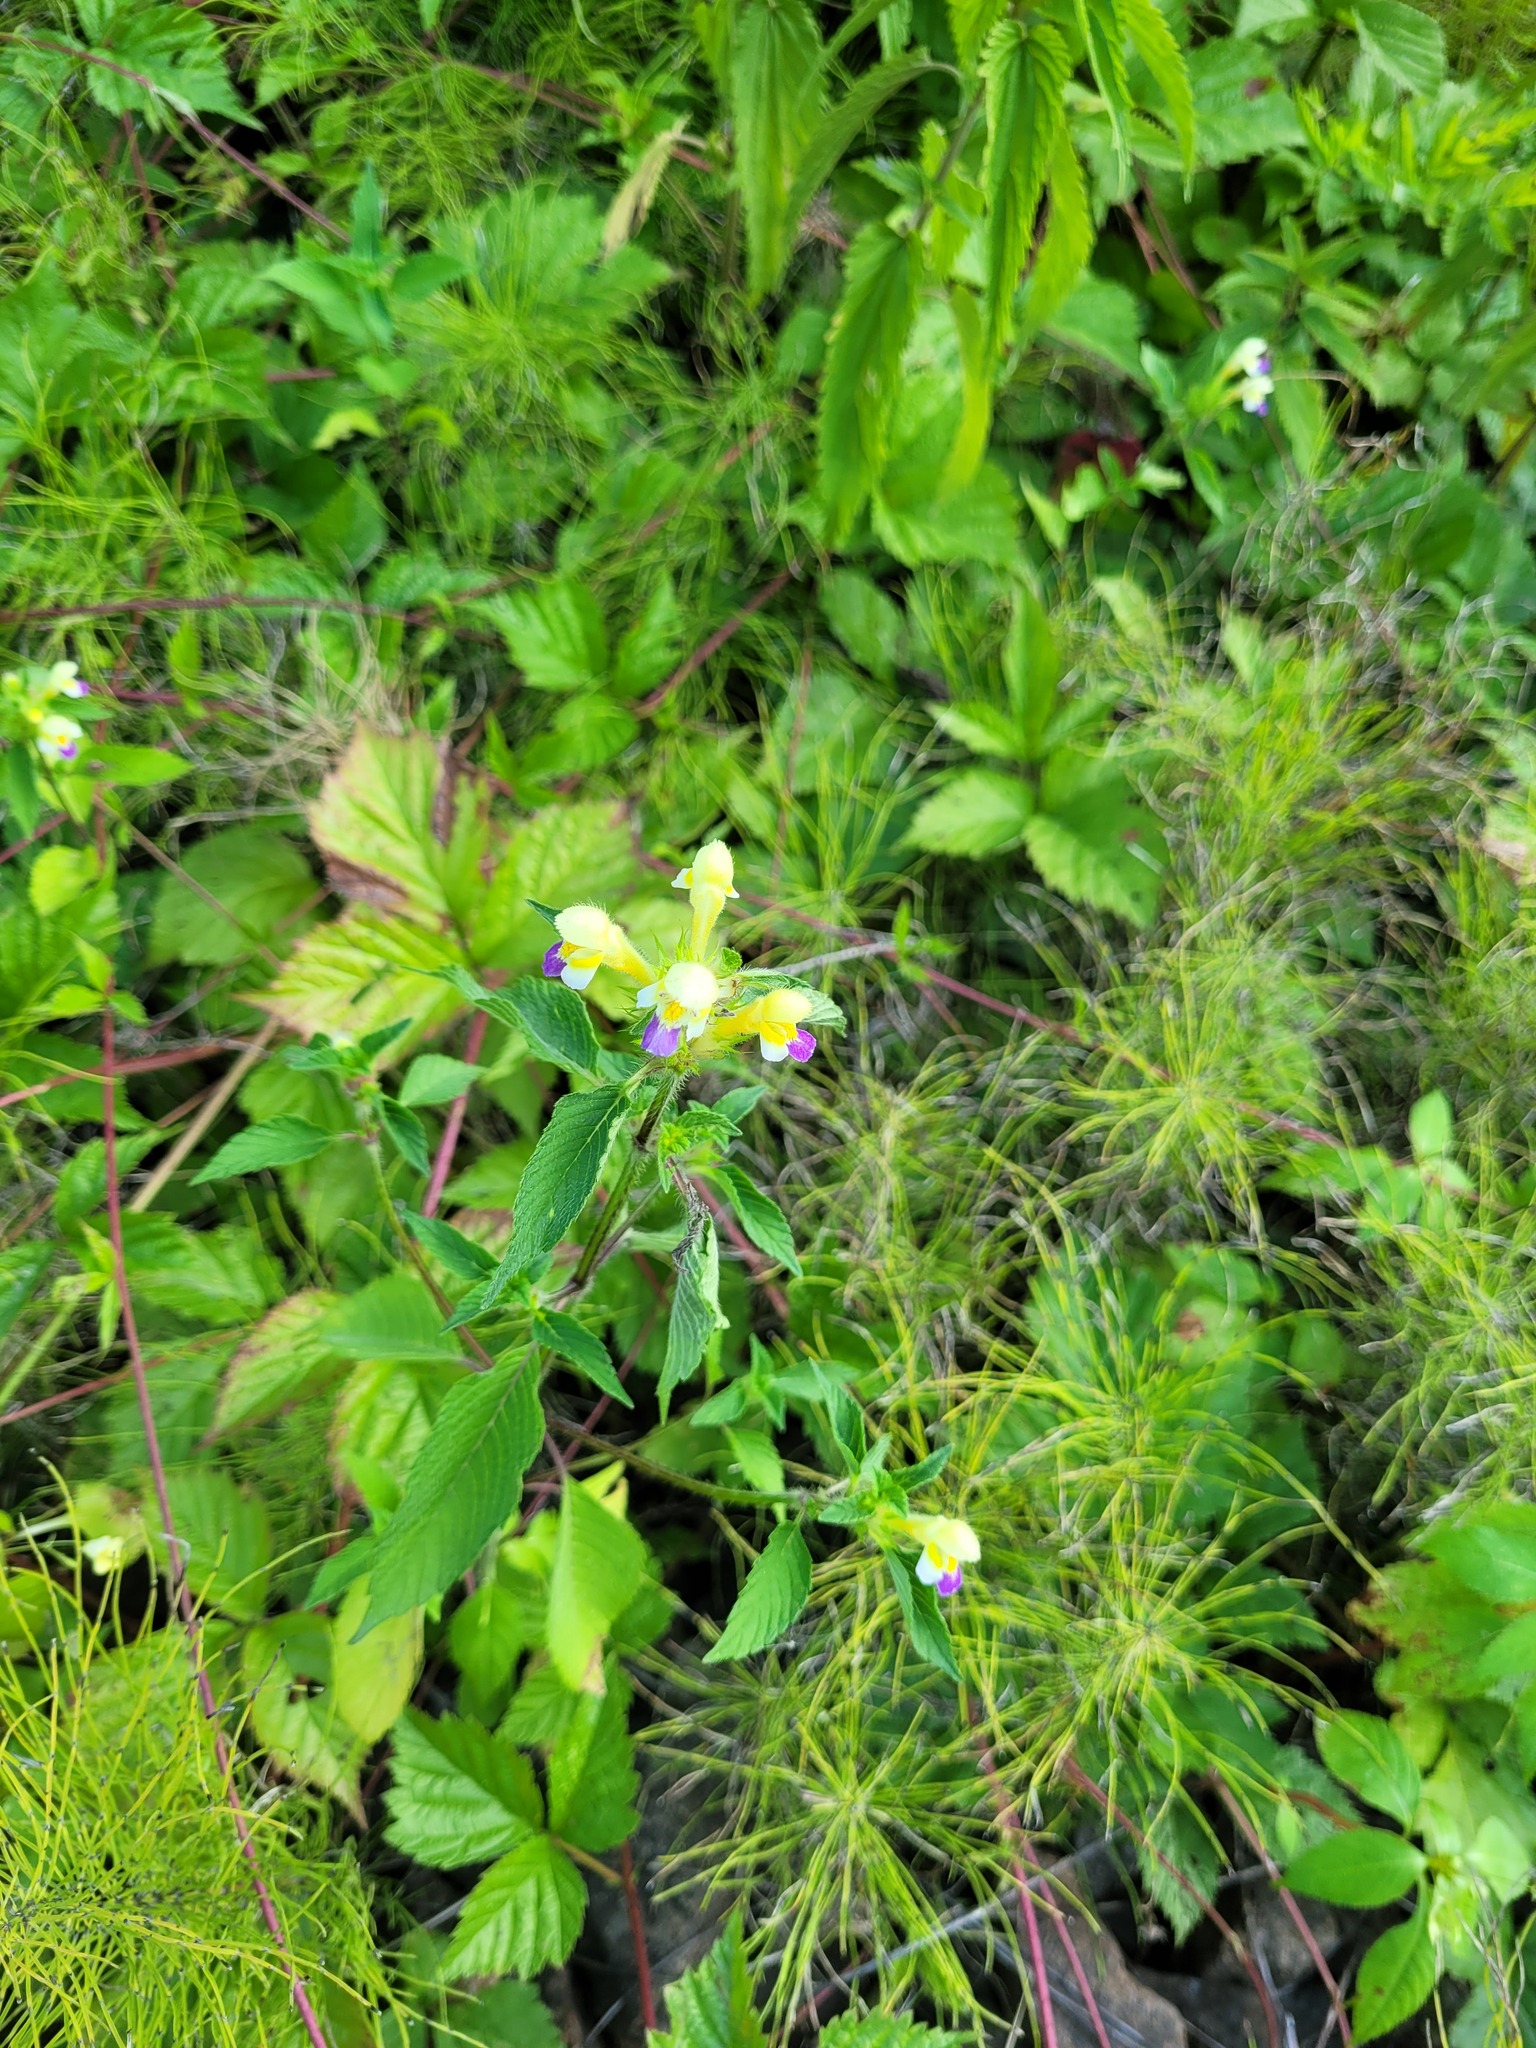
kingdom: Plantae
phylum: Tracheophyta
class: Magnoliopsida
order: Lamiales
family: Lamiaceae
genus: Galeopsis
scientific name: Galeopsis speciosa
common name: Large-flowered hemp-nettle
